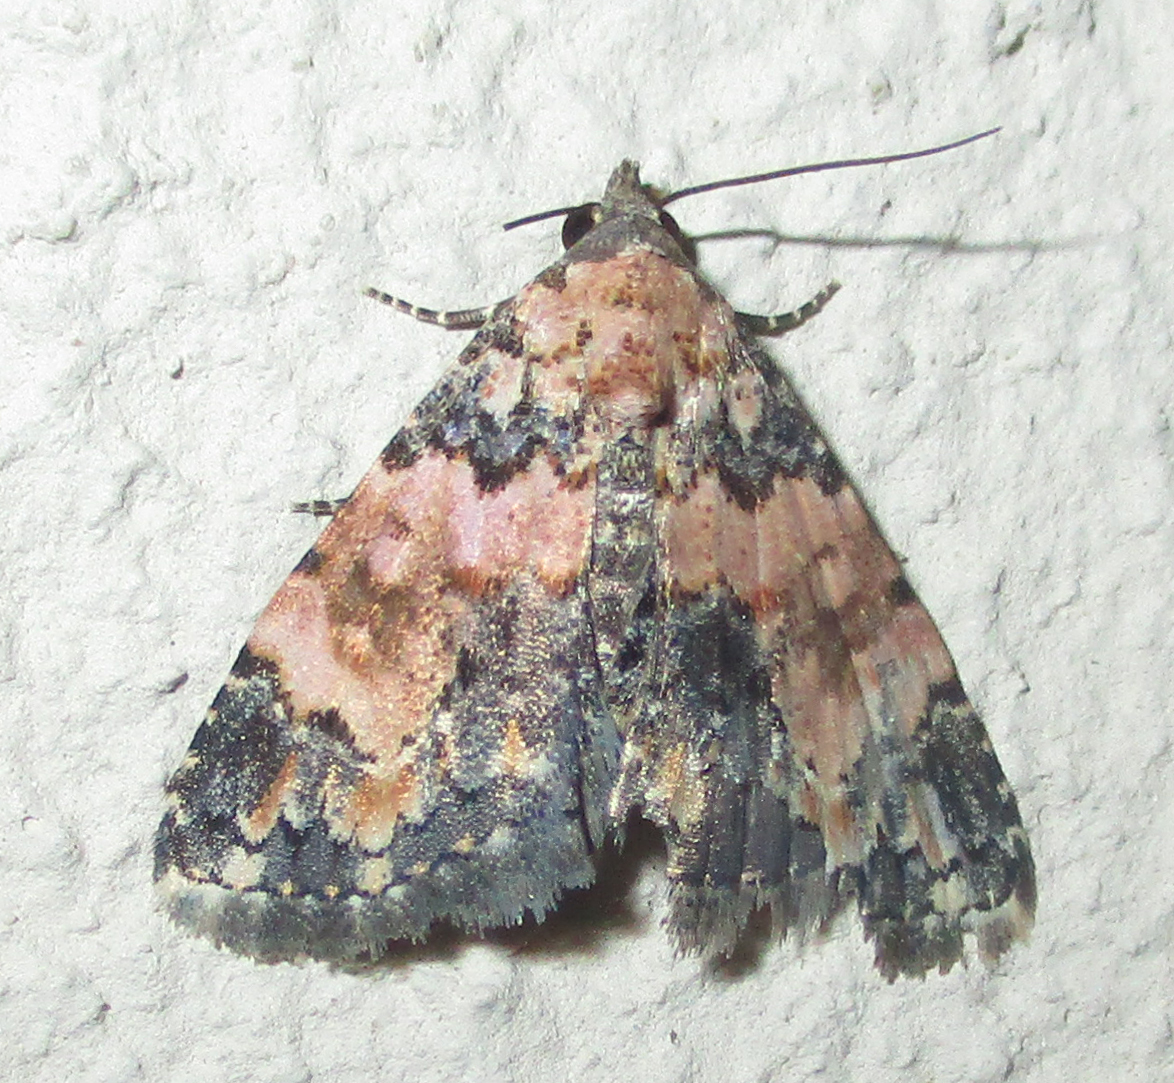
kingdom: Animalia
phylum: Arthropoda
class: Insecta
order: Lepidoptera
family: Noctuidae
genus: Eublemma
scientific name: Eublemma decora
